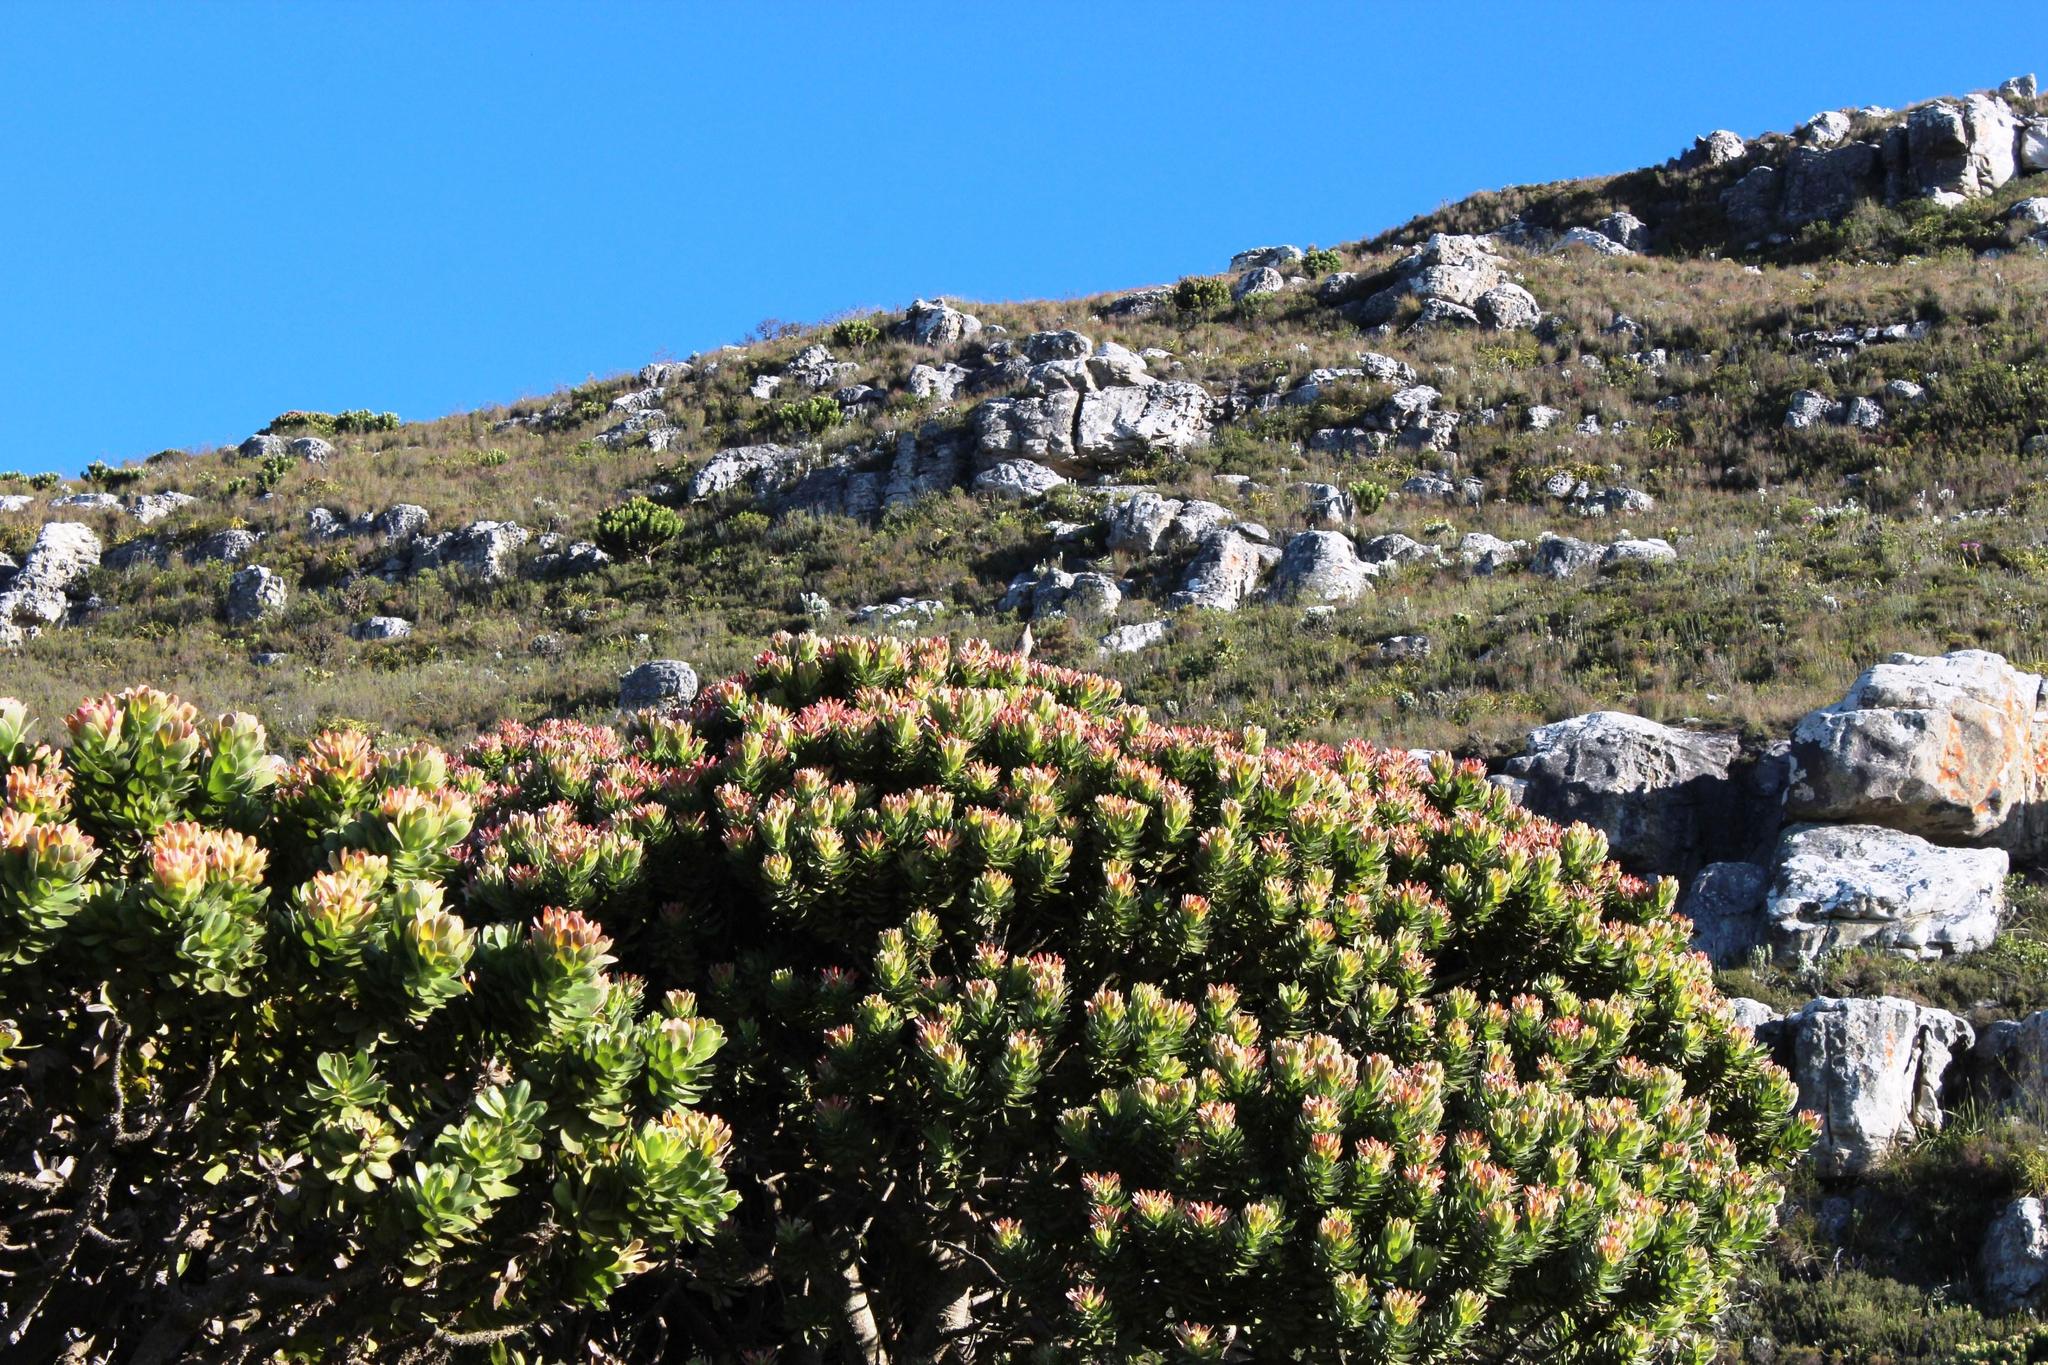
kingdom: Plantae
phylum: Tracheophyta
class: Magnoliopsida
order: Proteales
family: Proteaceae
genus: Mimetes
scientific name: Mimetes fimbriifolius
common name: Fringed bottlebrush
